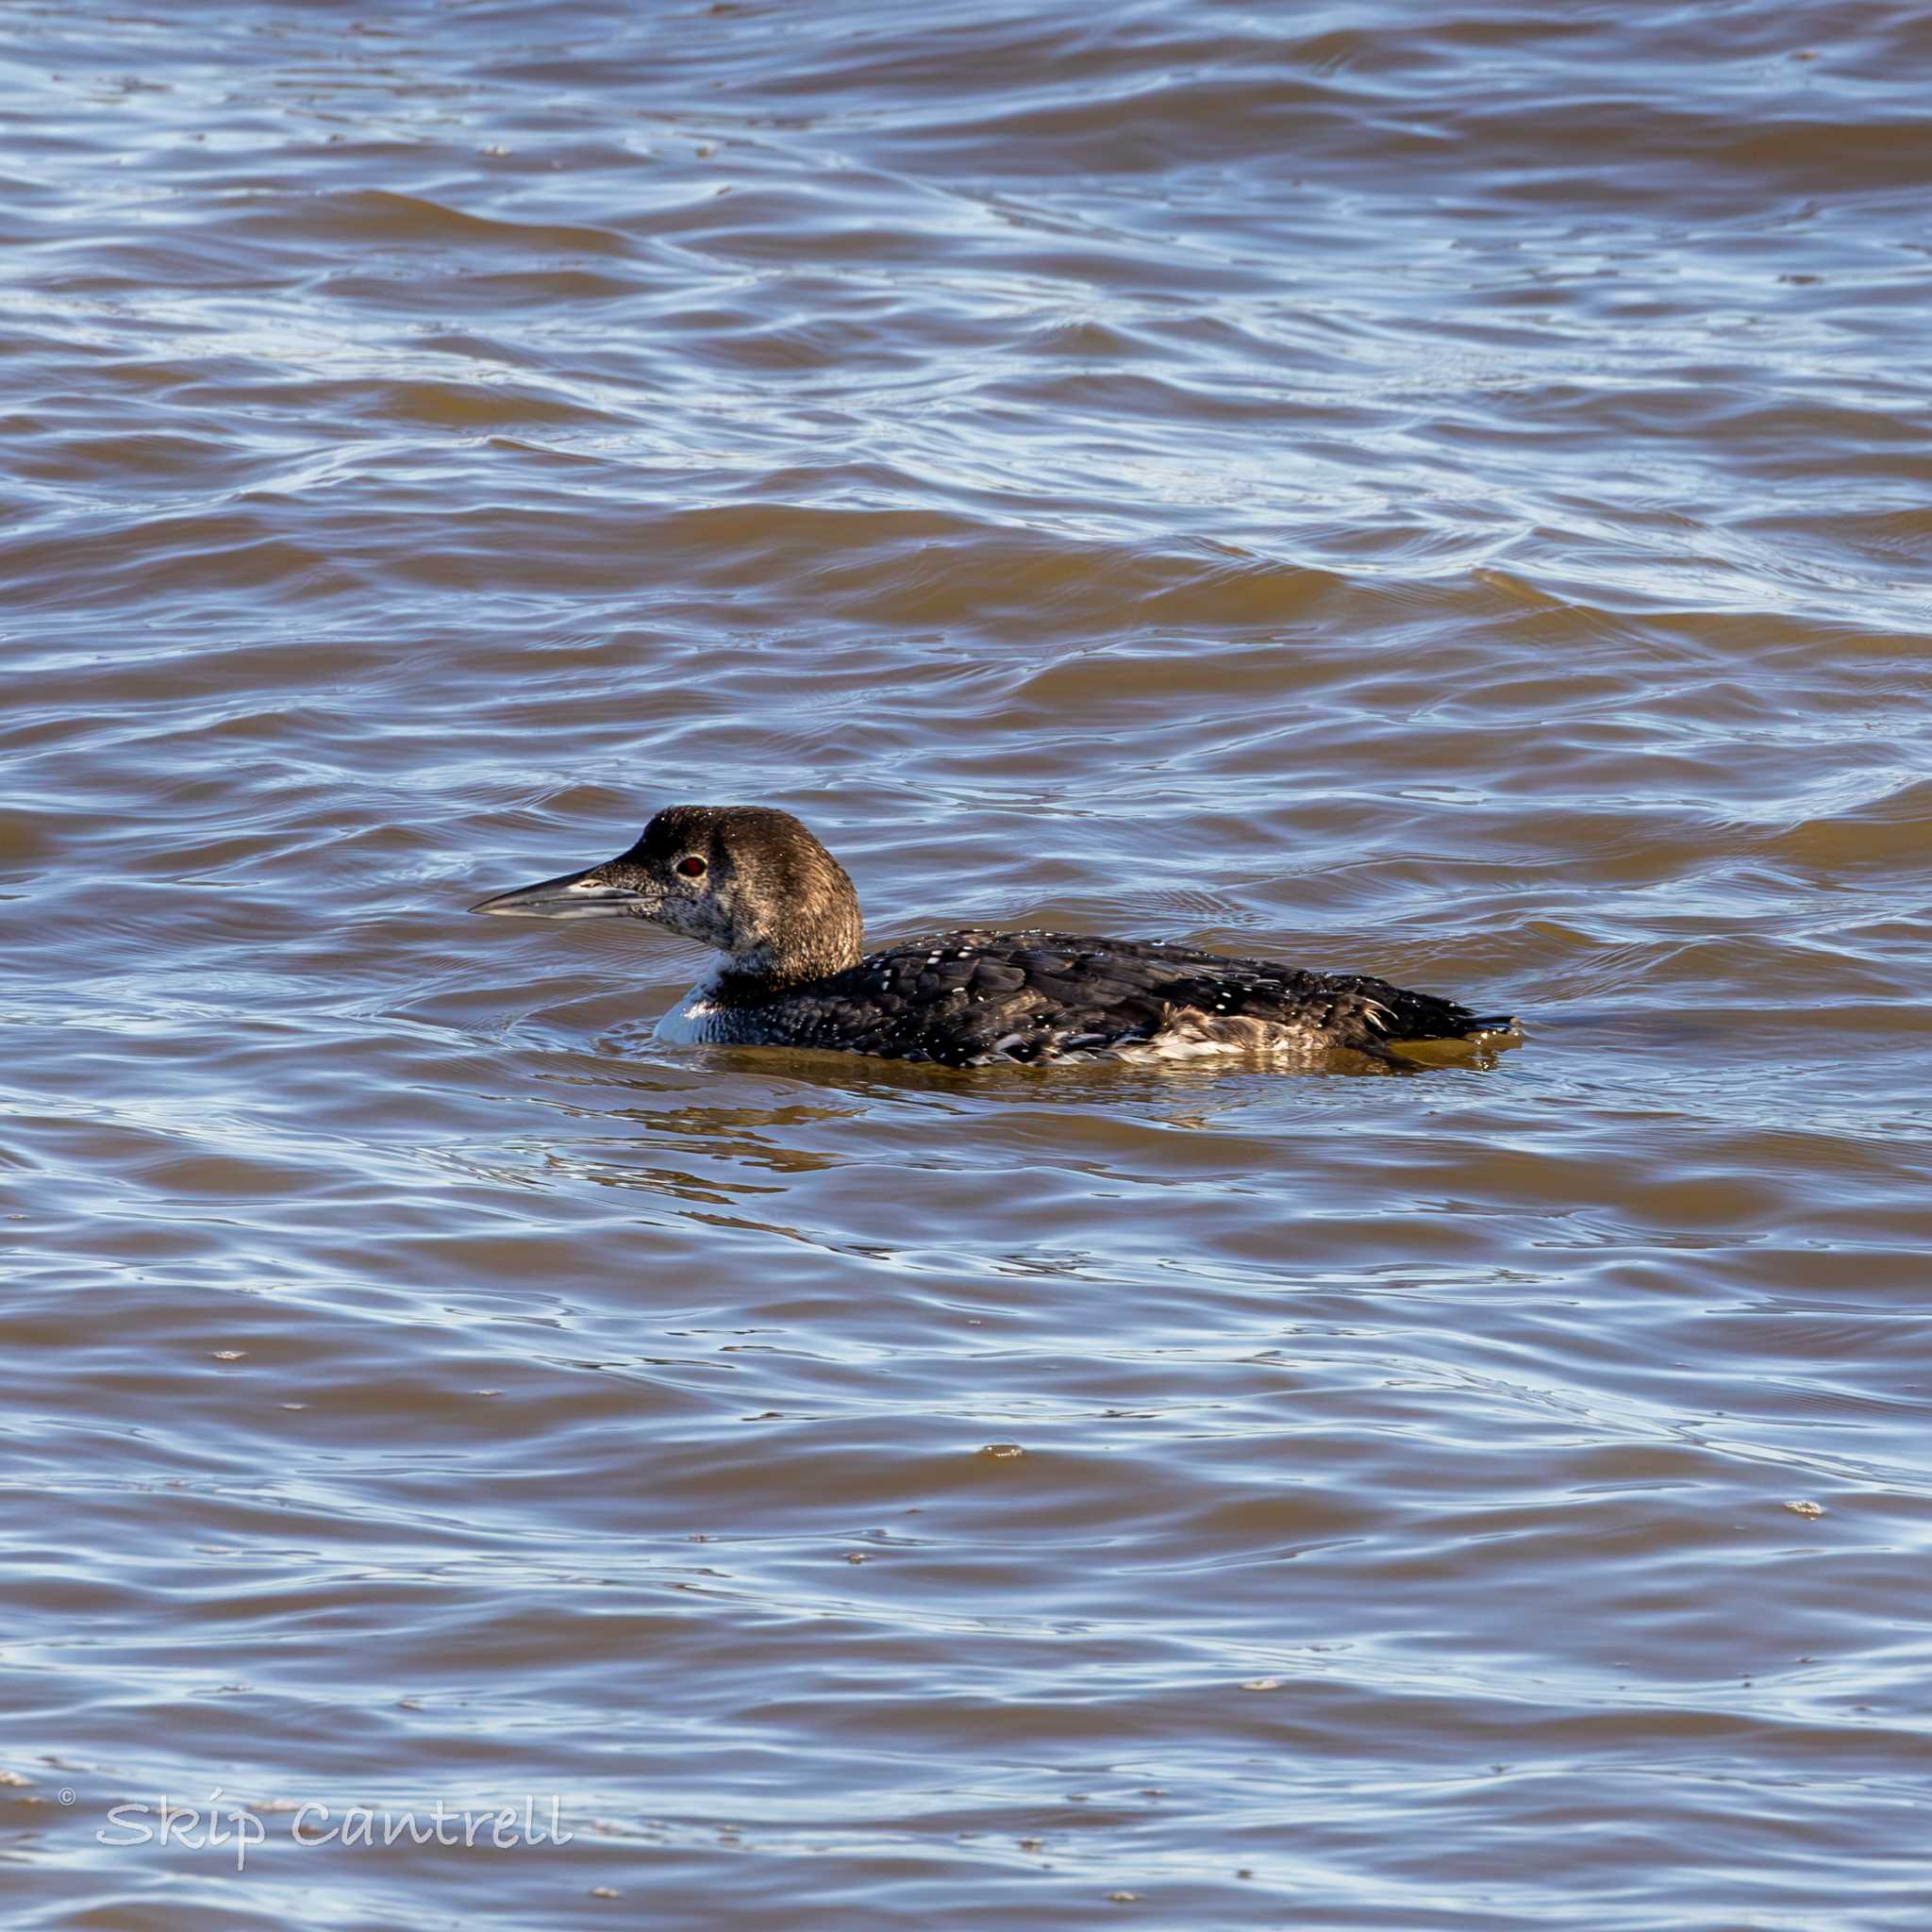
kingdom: Animalia
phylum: Chordata
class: Aves
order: Gaviiformes
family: Gaviidae
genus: Gavia
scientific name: Gavia immer
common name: Common loon
